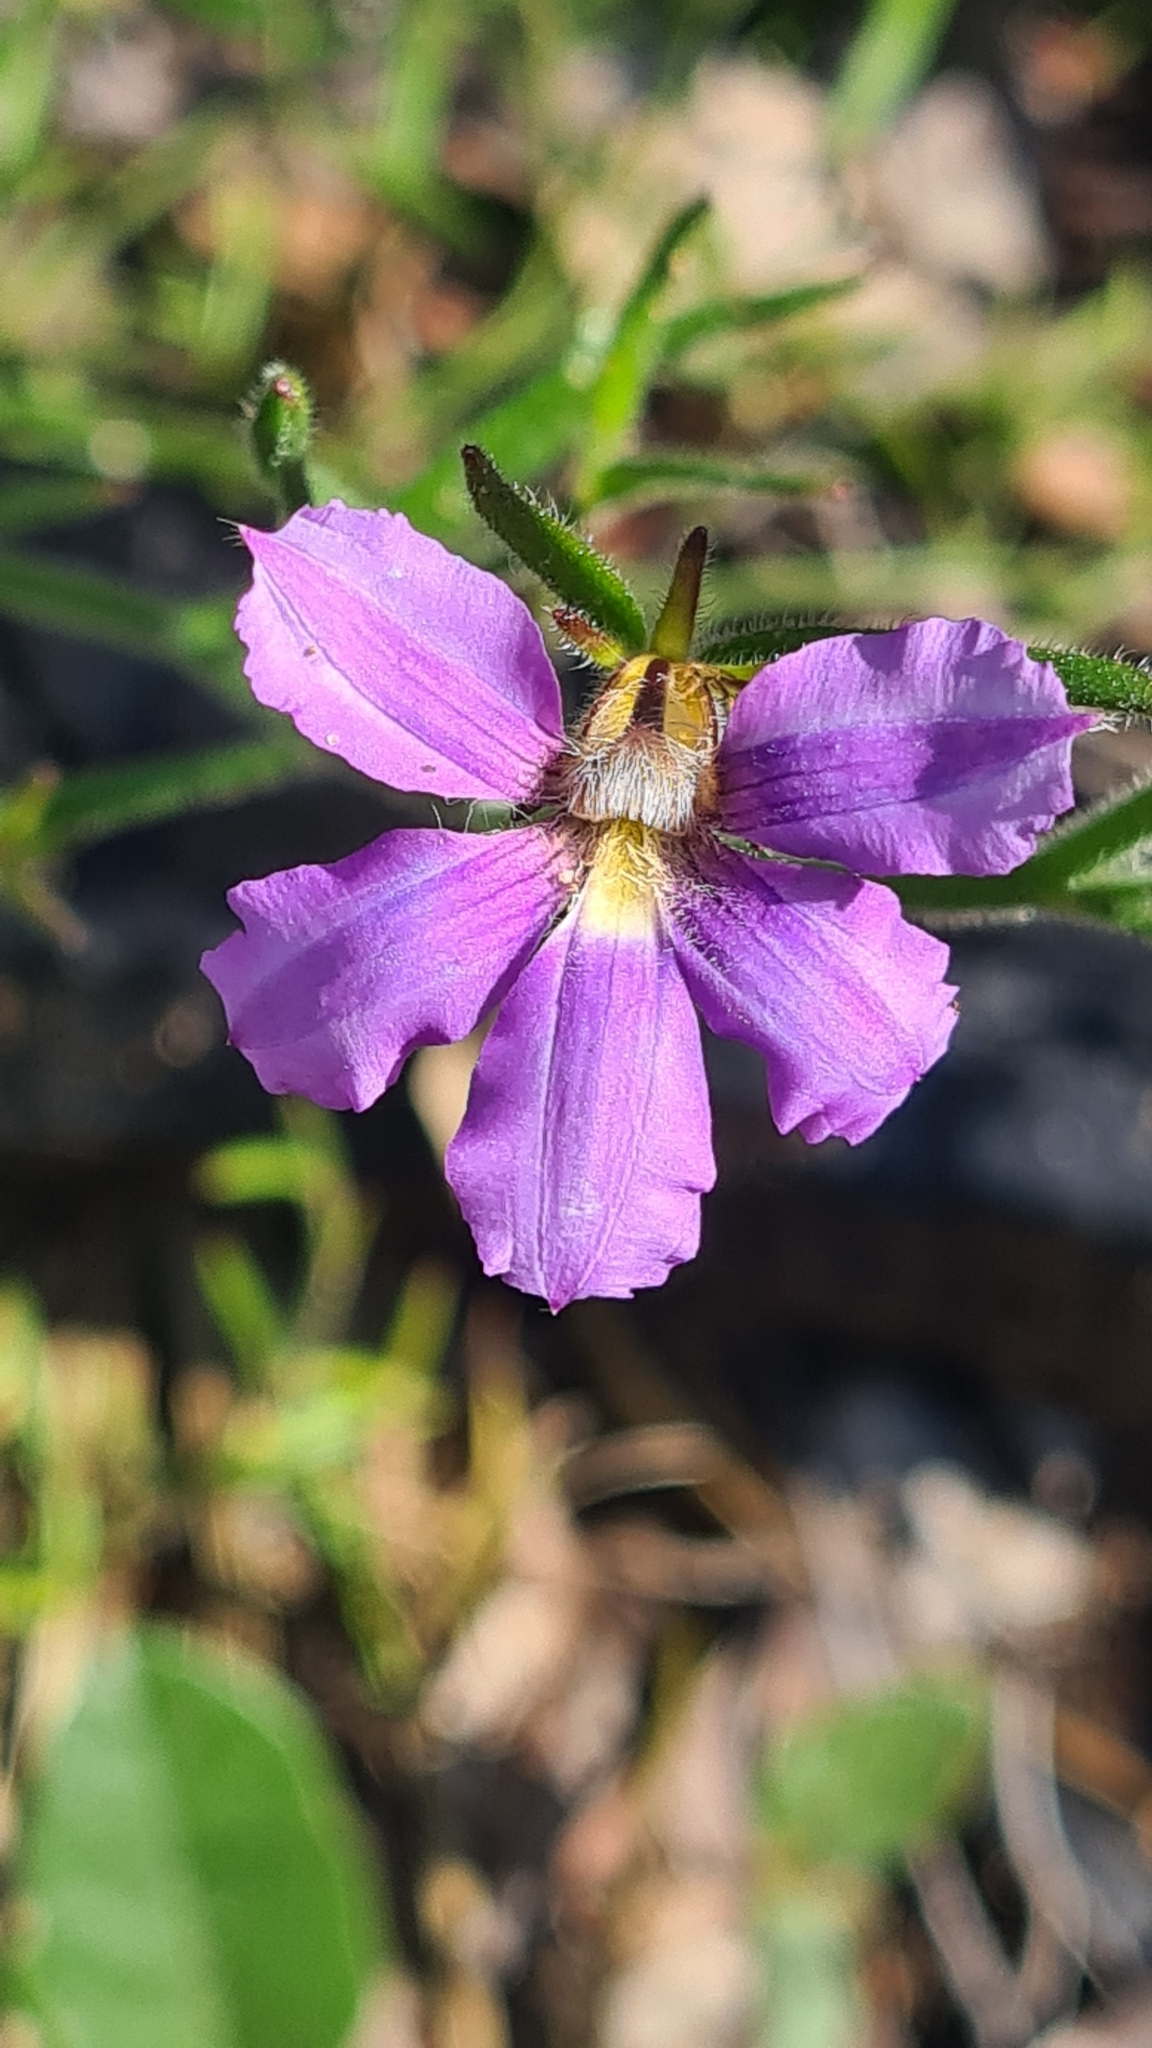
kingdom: Plantae
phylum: Tracheophyta
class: Magnoliopsida
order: Asterales
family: Goodeniaceae
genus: Scaevola
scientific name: Scaevola ramosissima
